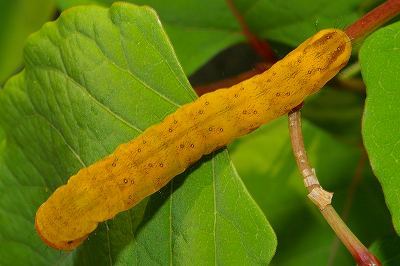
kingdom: Animalia
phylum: Arthropoda
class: Insecta
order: Lepidoptera
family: Noctuidae
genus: Xylena
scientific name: Xylena changi
